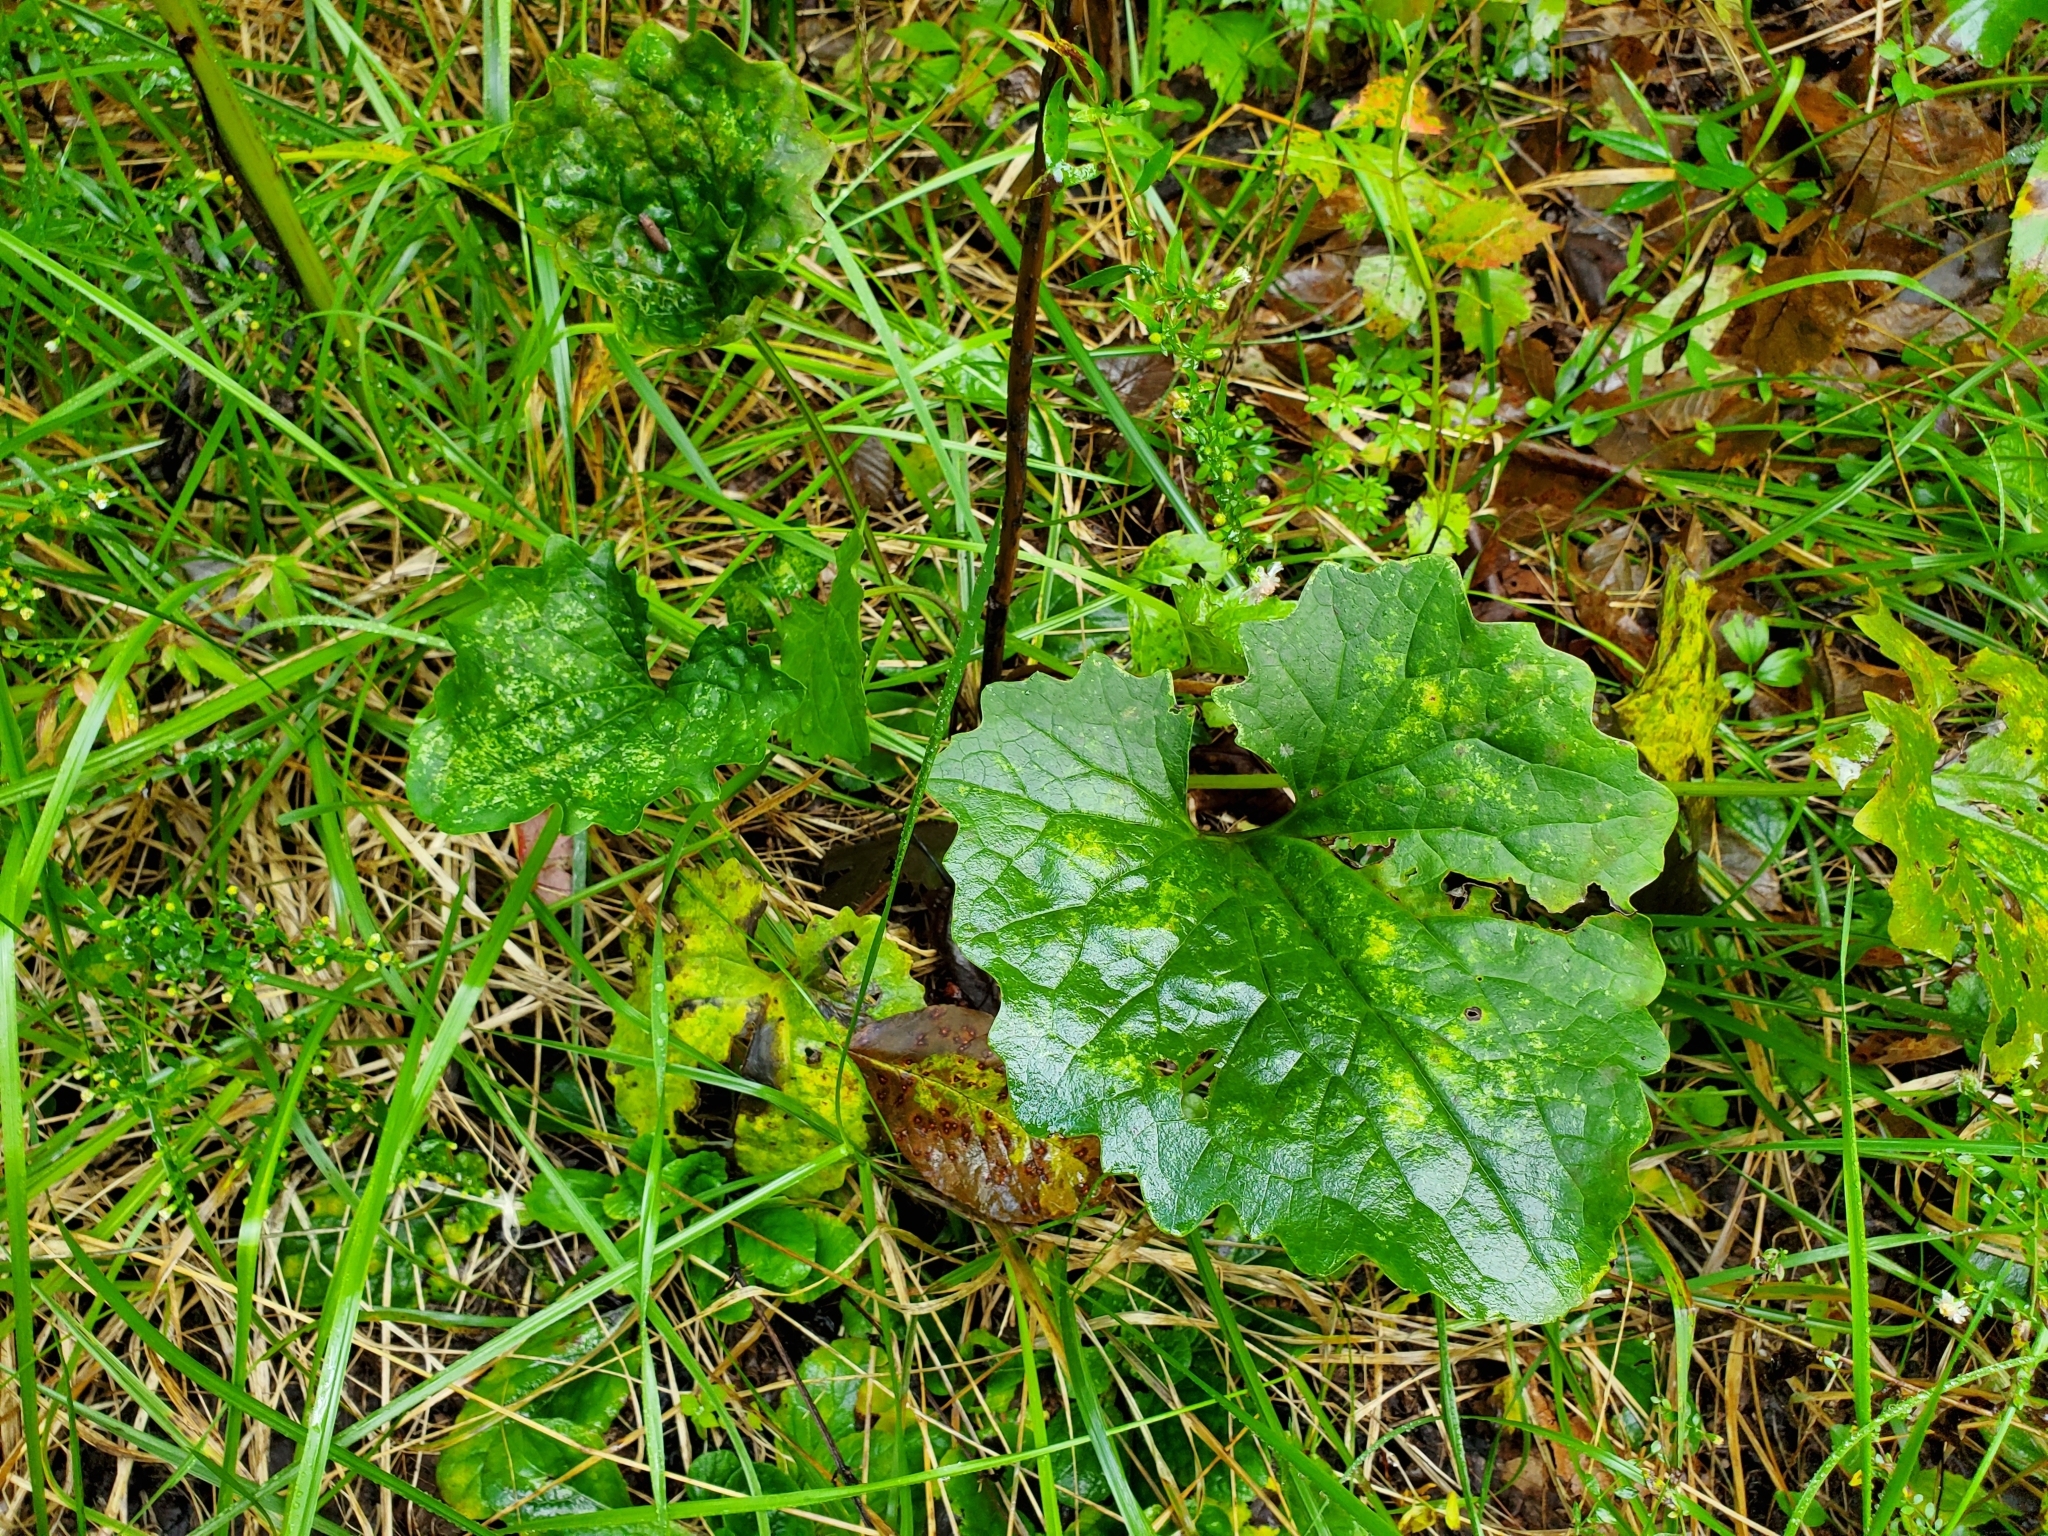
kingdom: Plantae
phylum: Tracheophyta
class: Magnoliopsida
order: Asterales
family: Asteraceae
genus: Arnoglossum
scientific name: Arnoglossum atriplicifolium
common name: Pale indian-plantain
